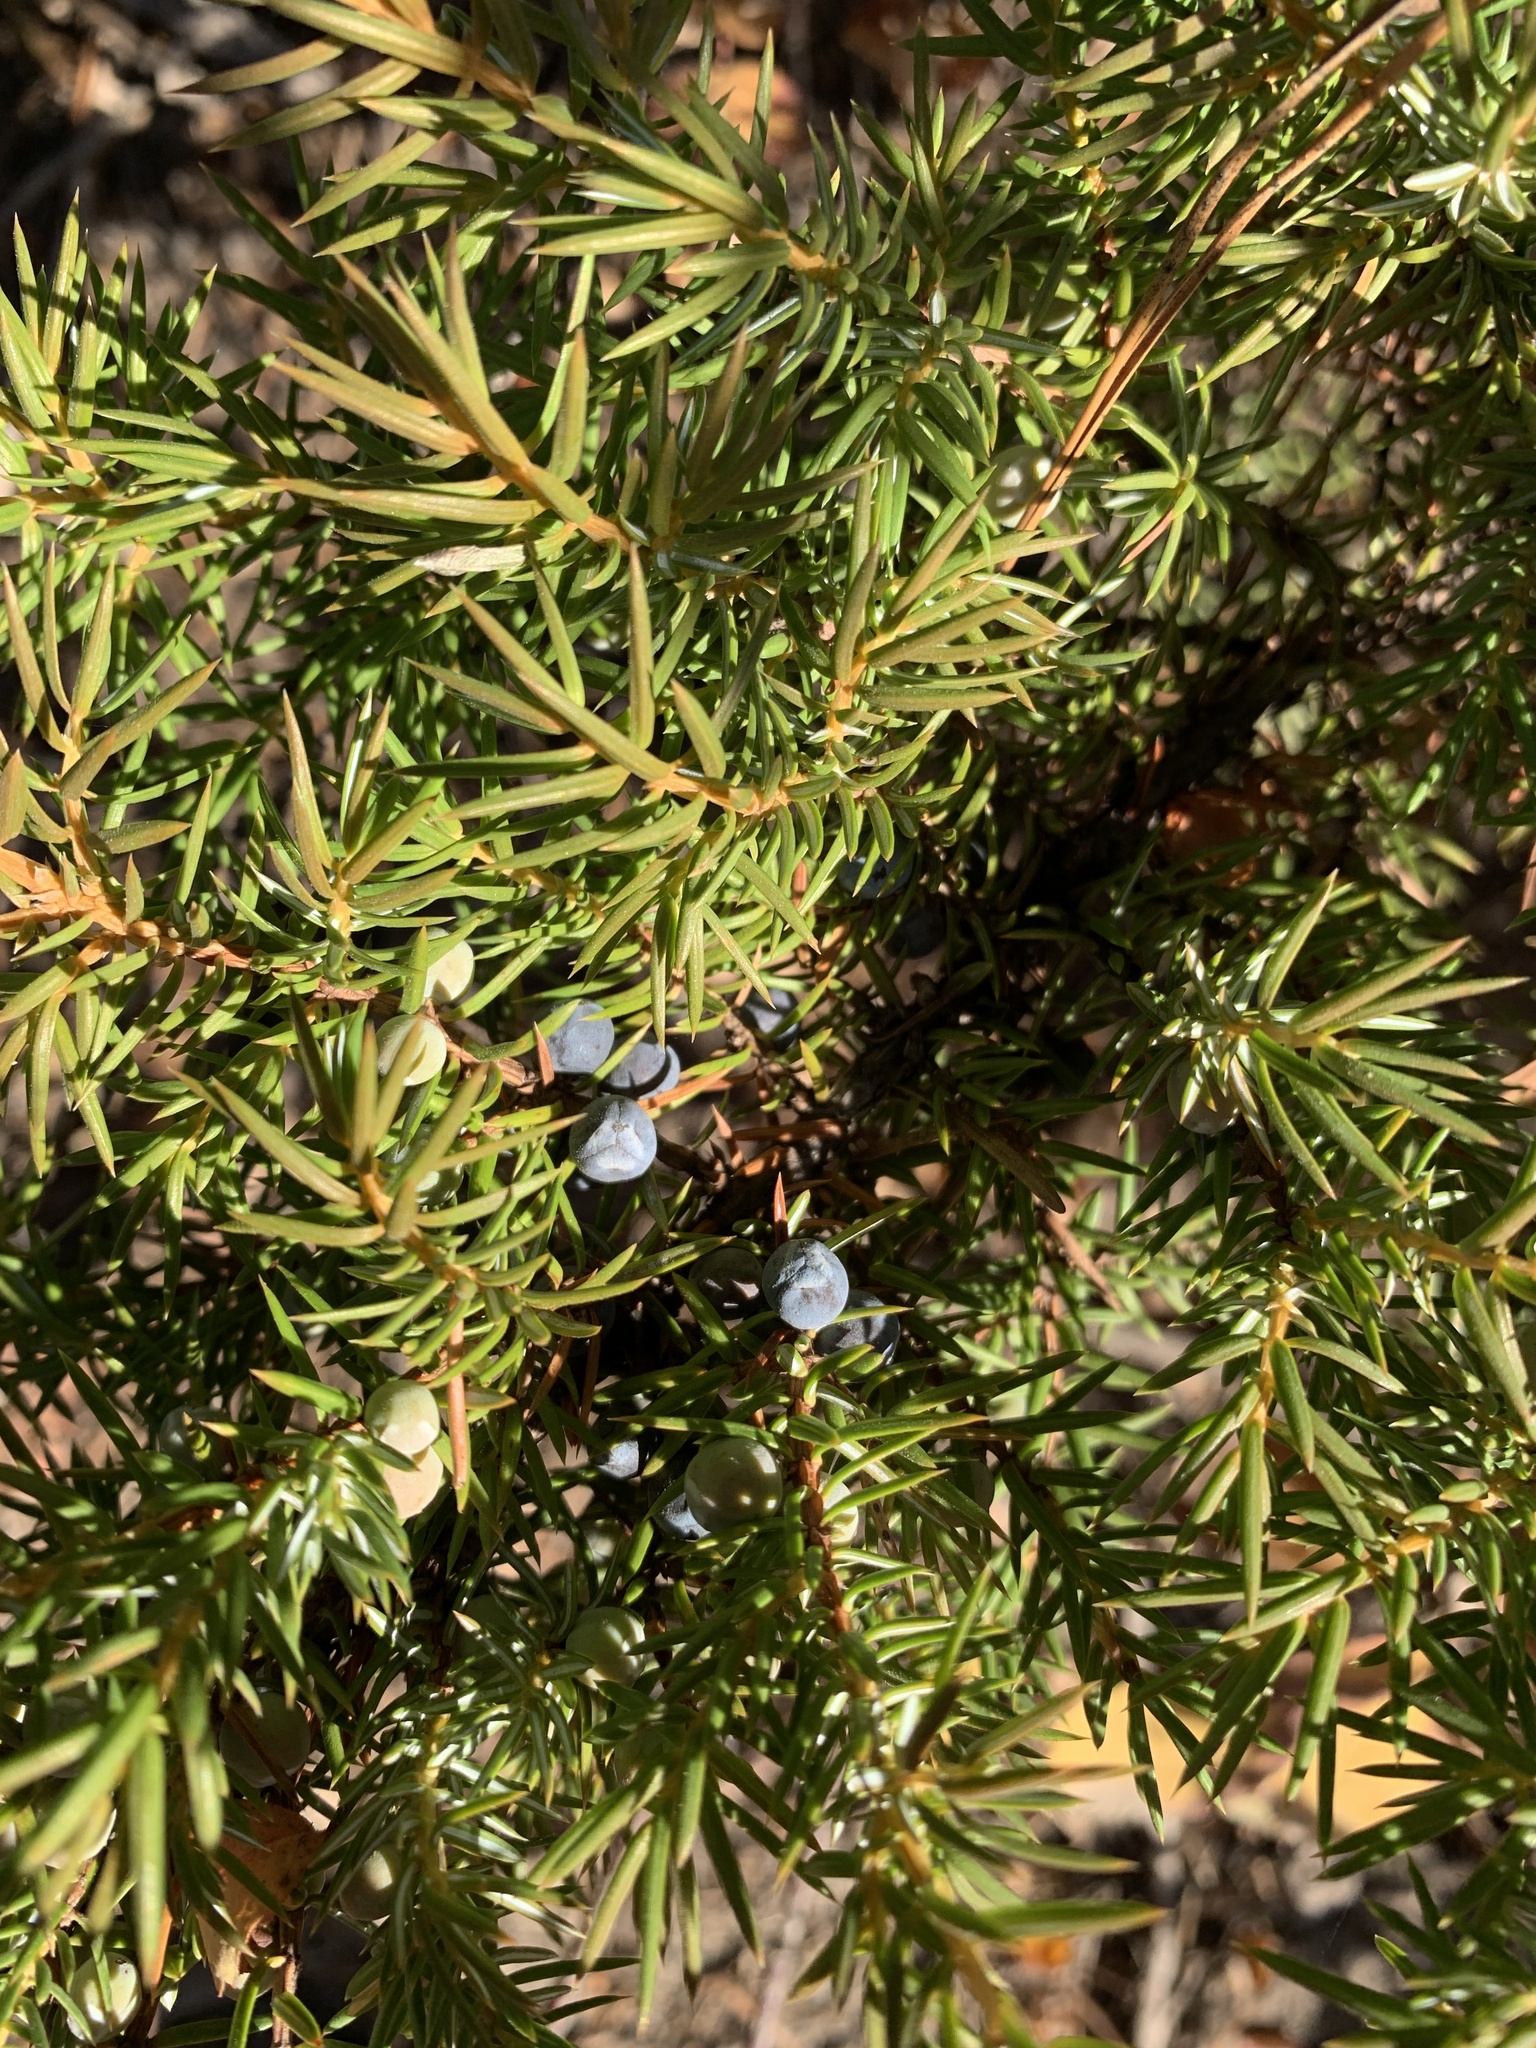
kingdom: Plantae
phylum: Tracheophyta
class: Pinopsida
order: Pinales
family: Cupressaceae
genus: Juniperus
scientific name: Juniperus communis
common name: Common juniper
